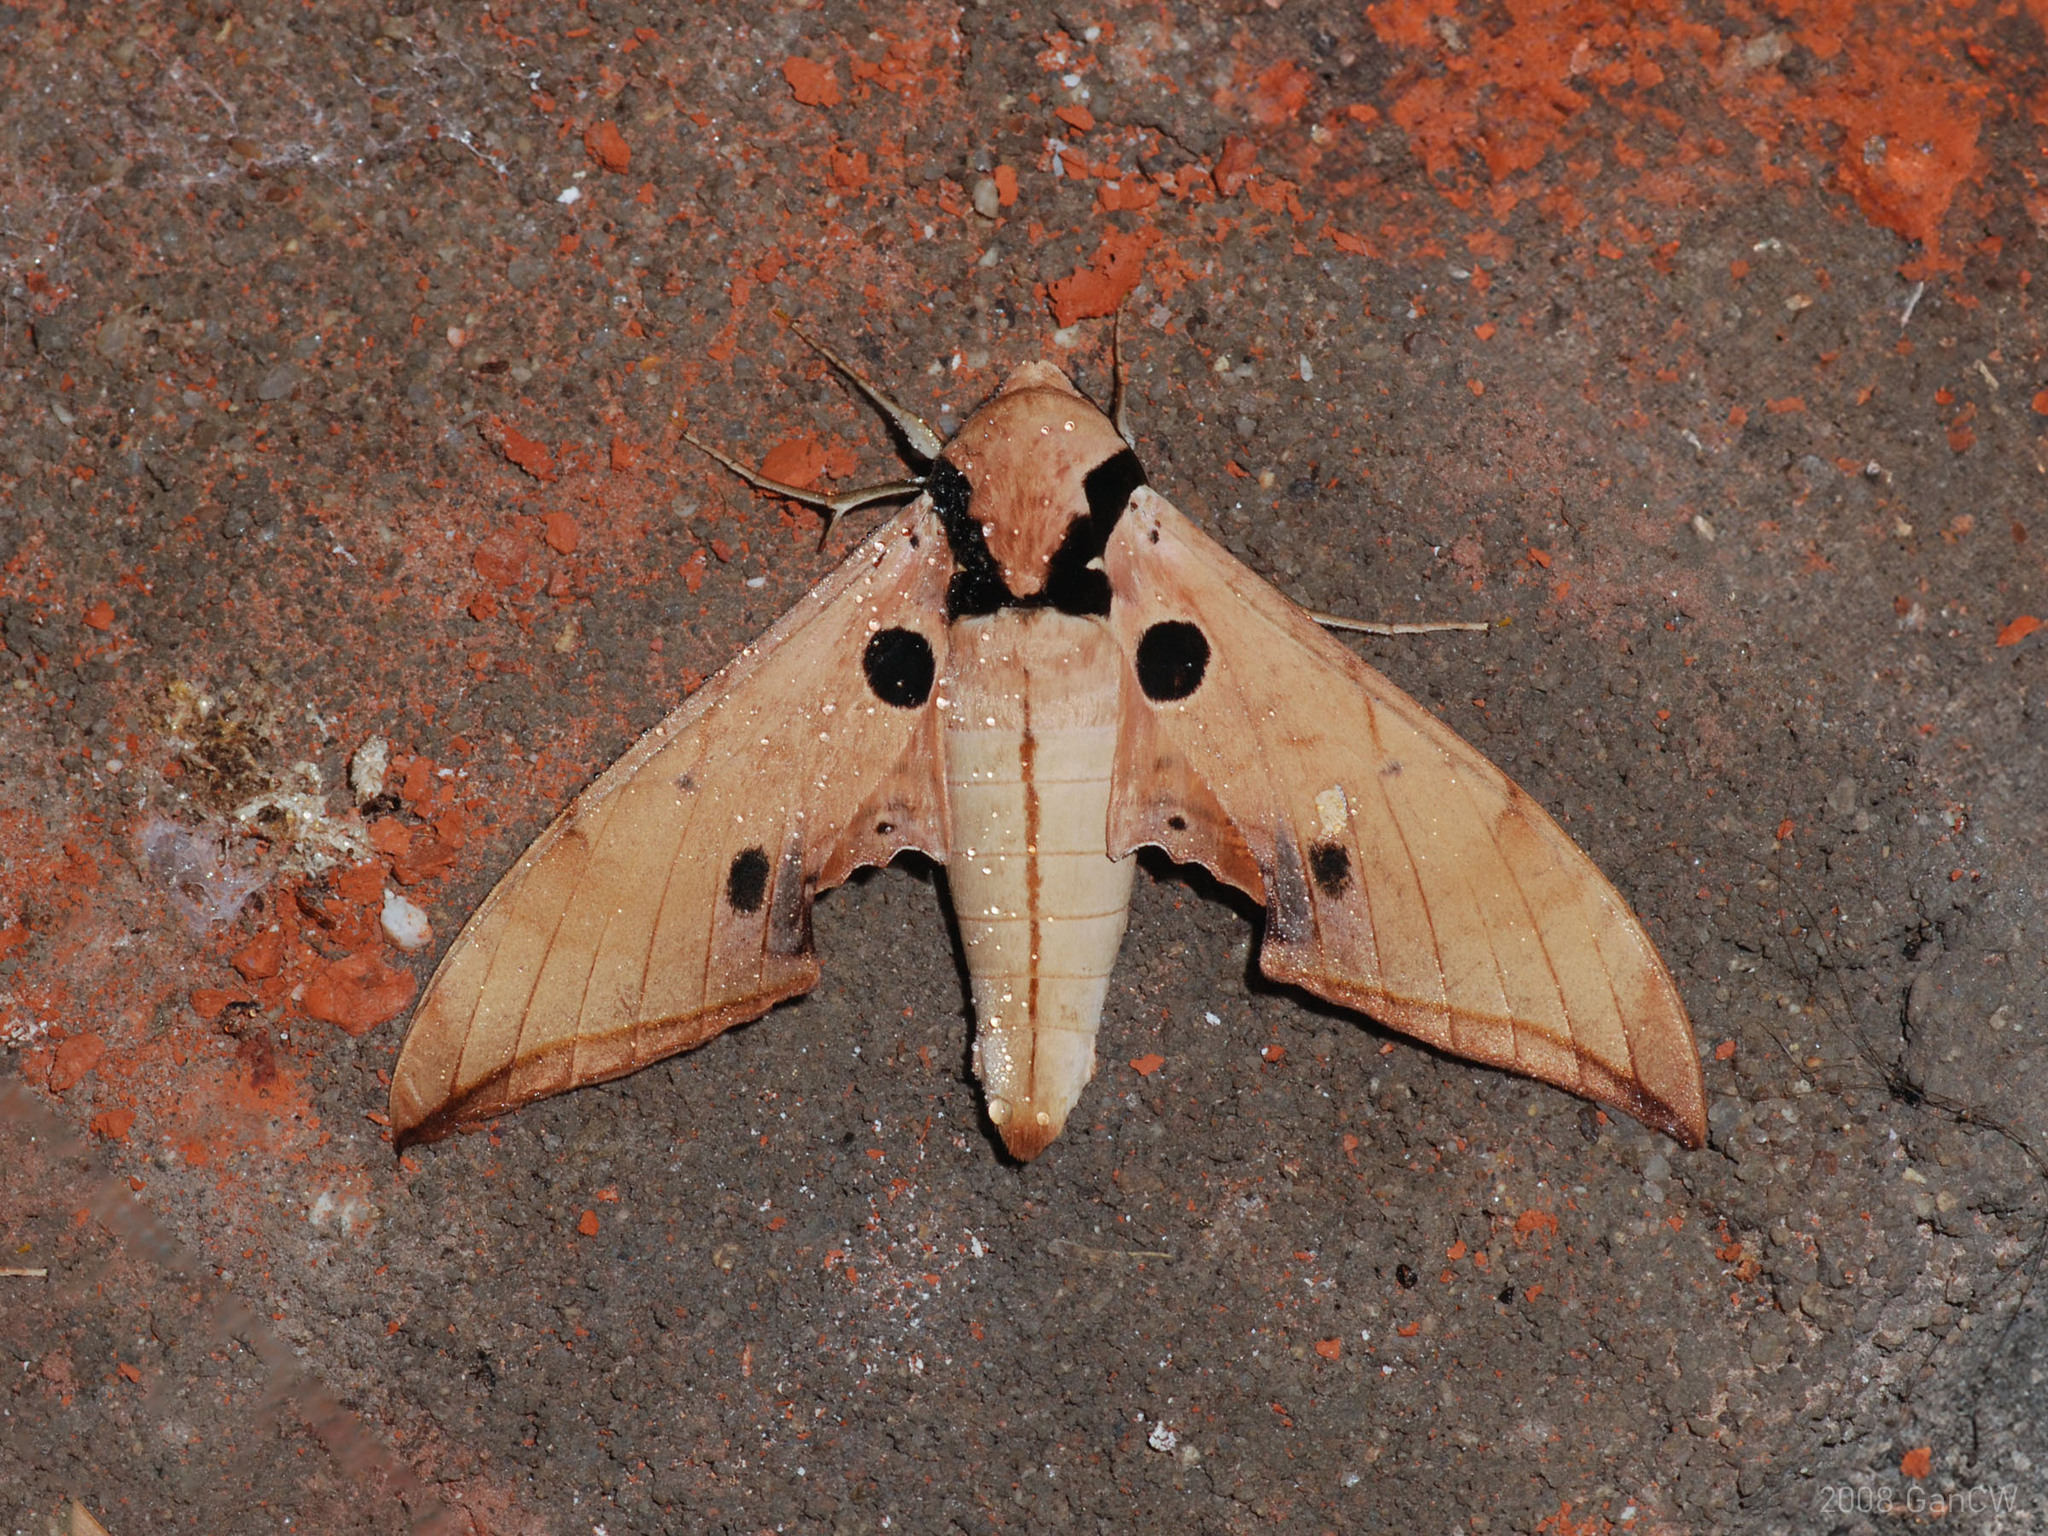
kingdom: Animalia
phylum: Arthropoda
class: Insecta
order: Lepidoptera
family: Sphingidae
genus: Ambulyx
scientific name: Ambulyx obliterata
